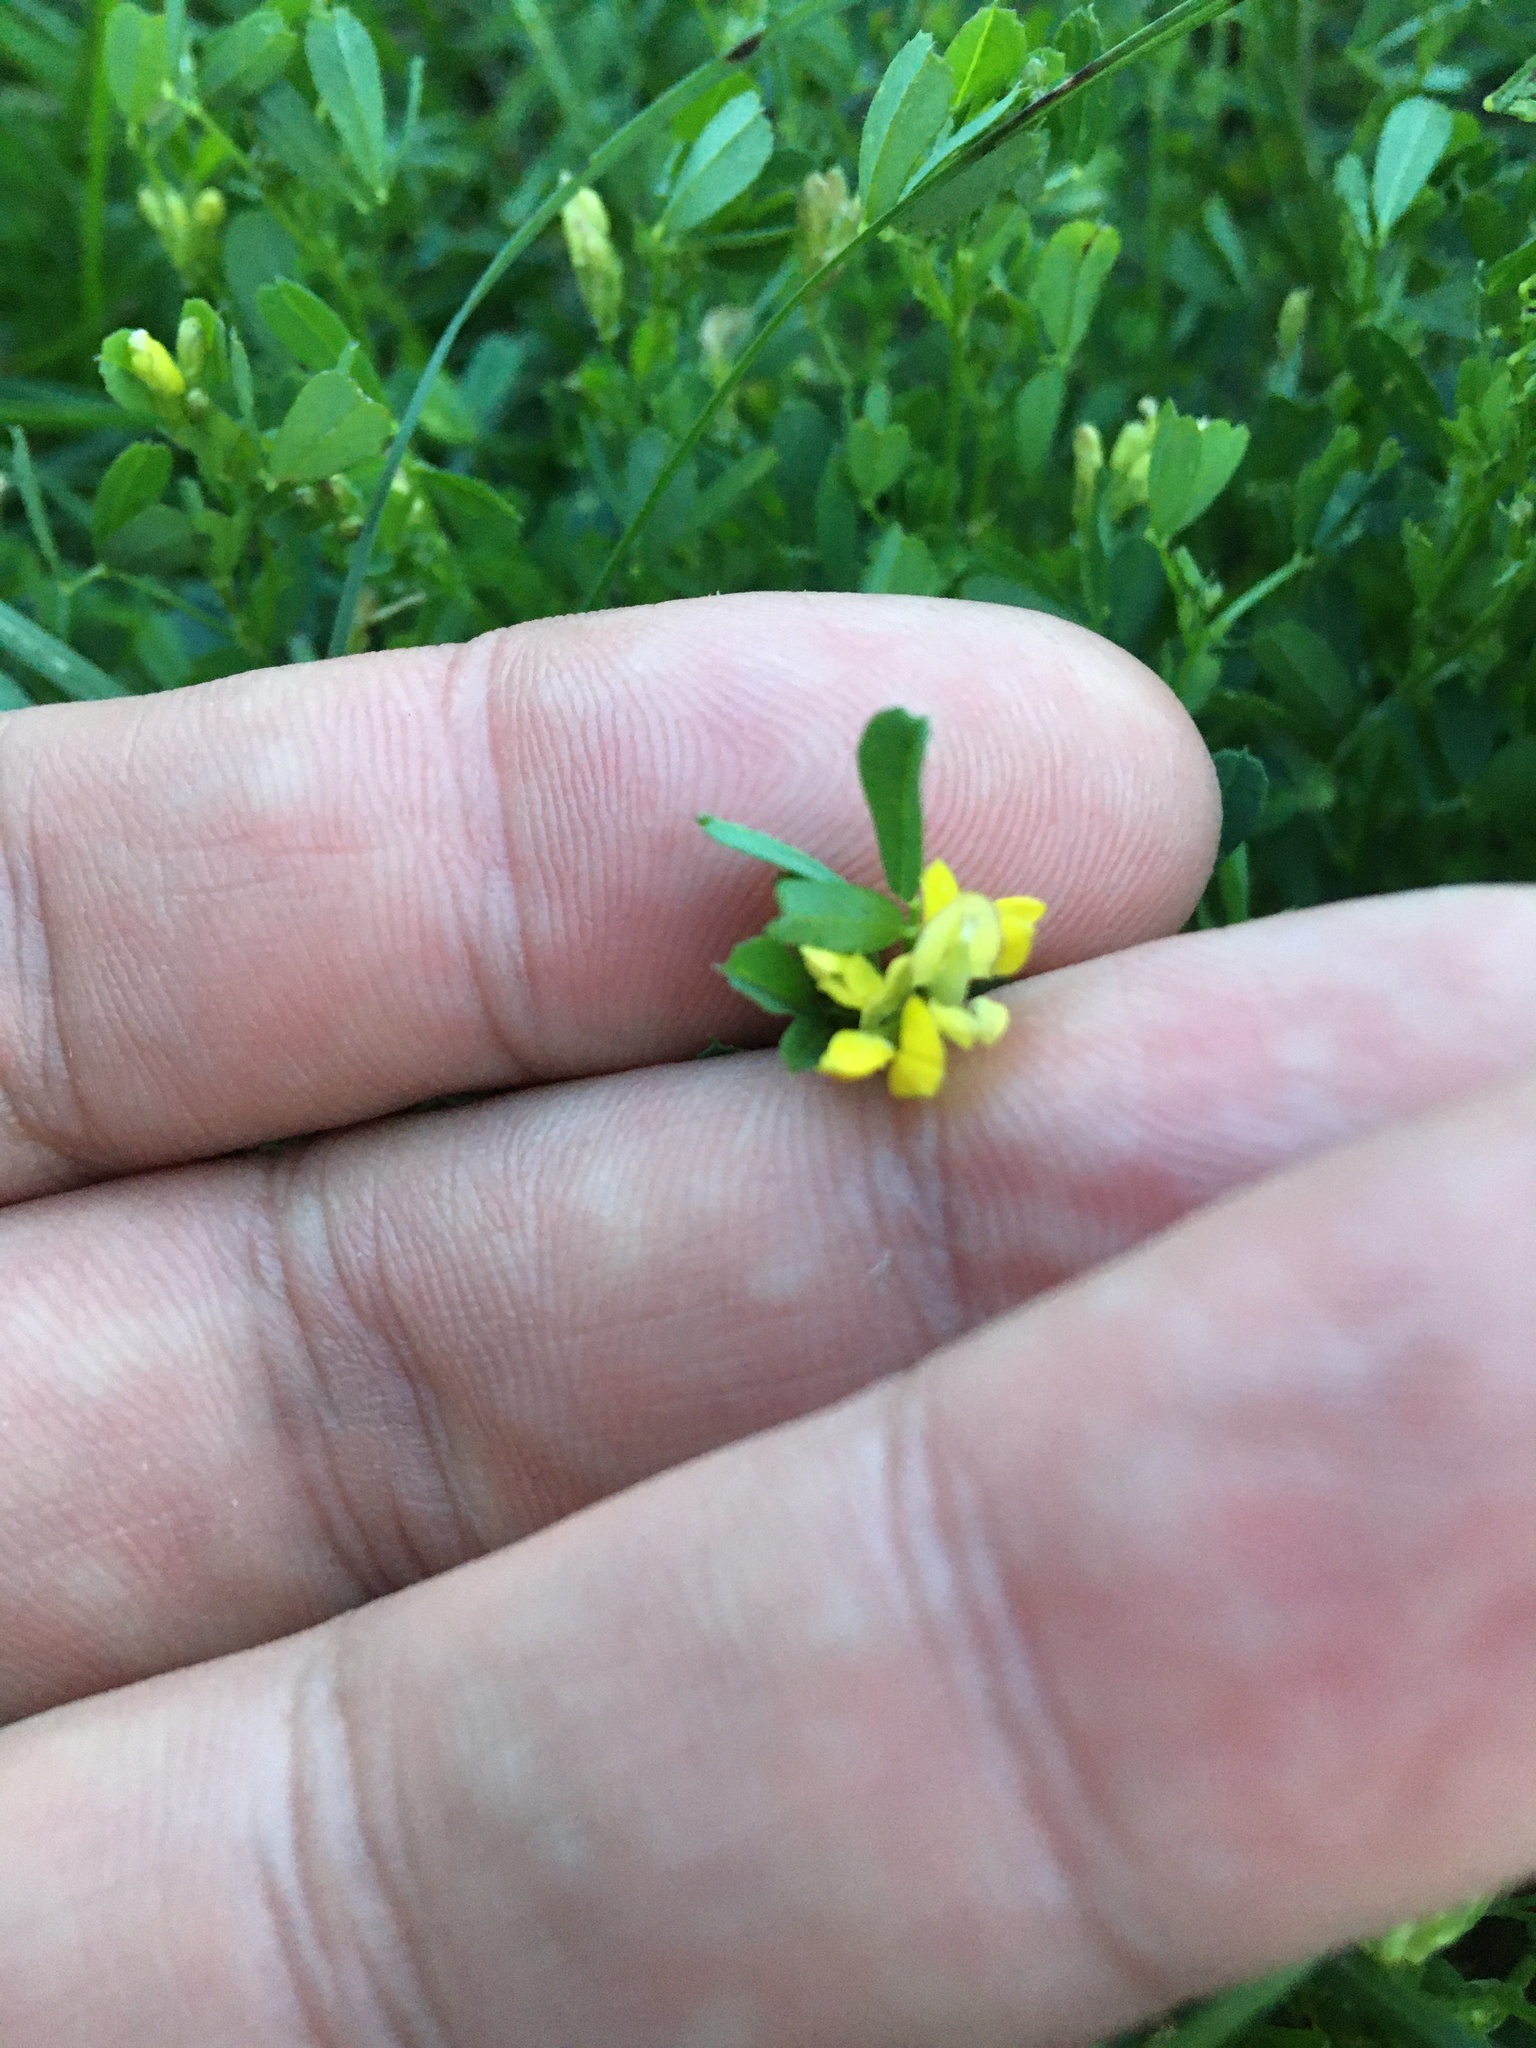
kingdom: Plantae
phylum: Tracheophyta
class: Magnoliopsida
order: Fabales
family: Fabaceae
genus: Medicago
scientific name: Medicago falcata
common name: Sickle medick
